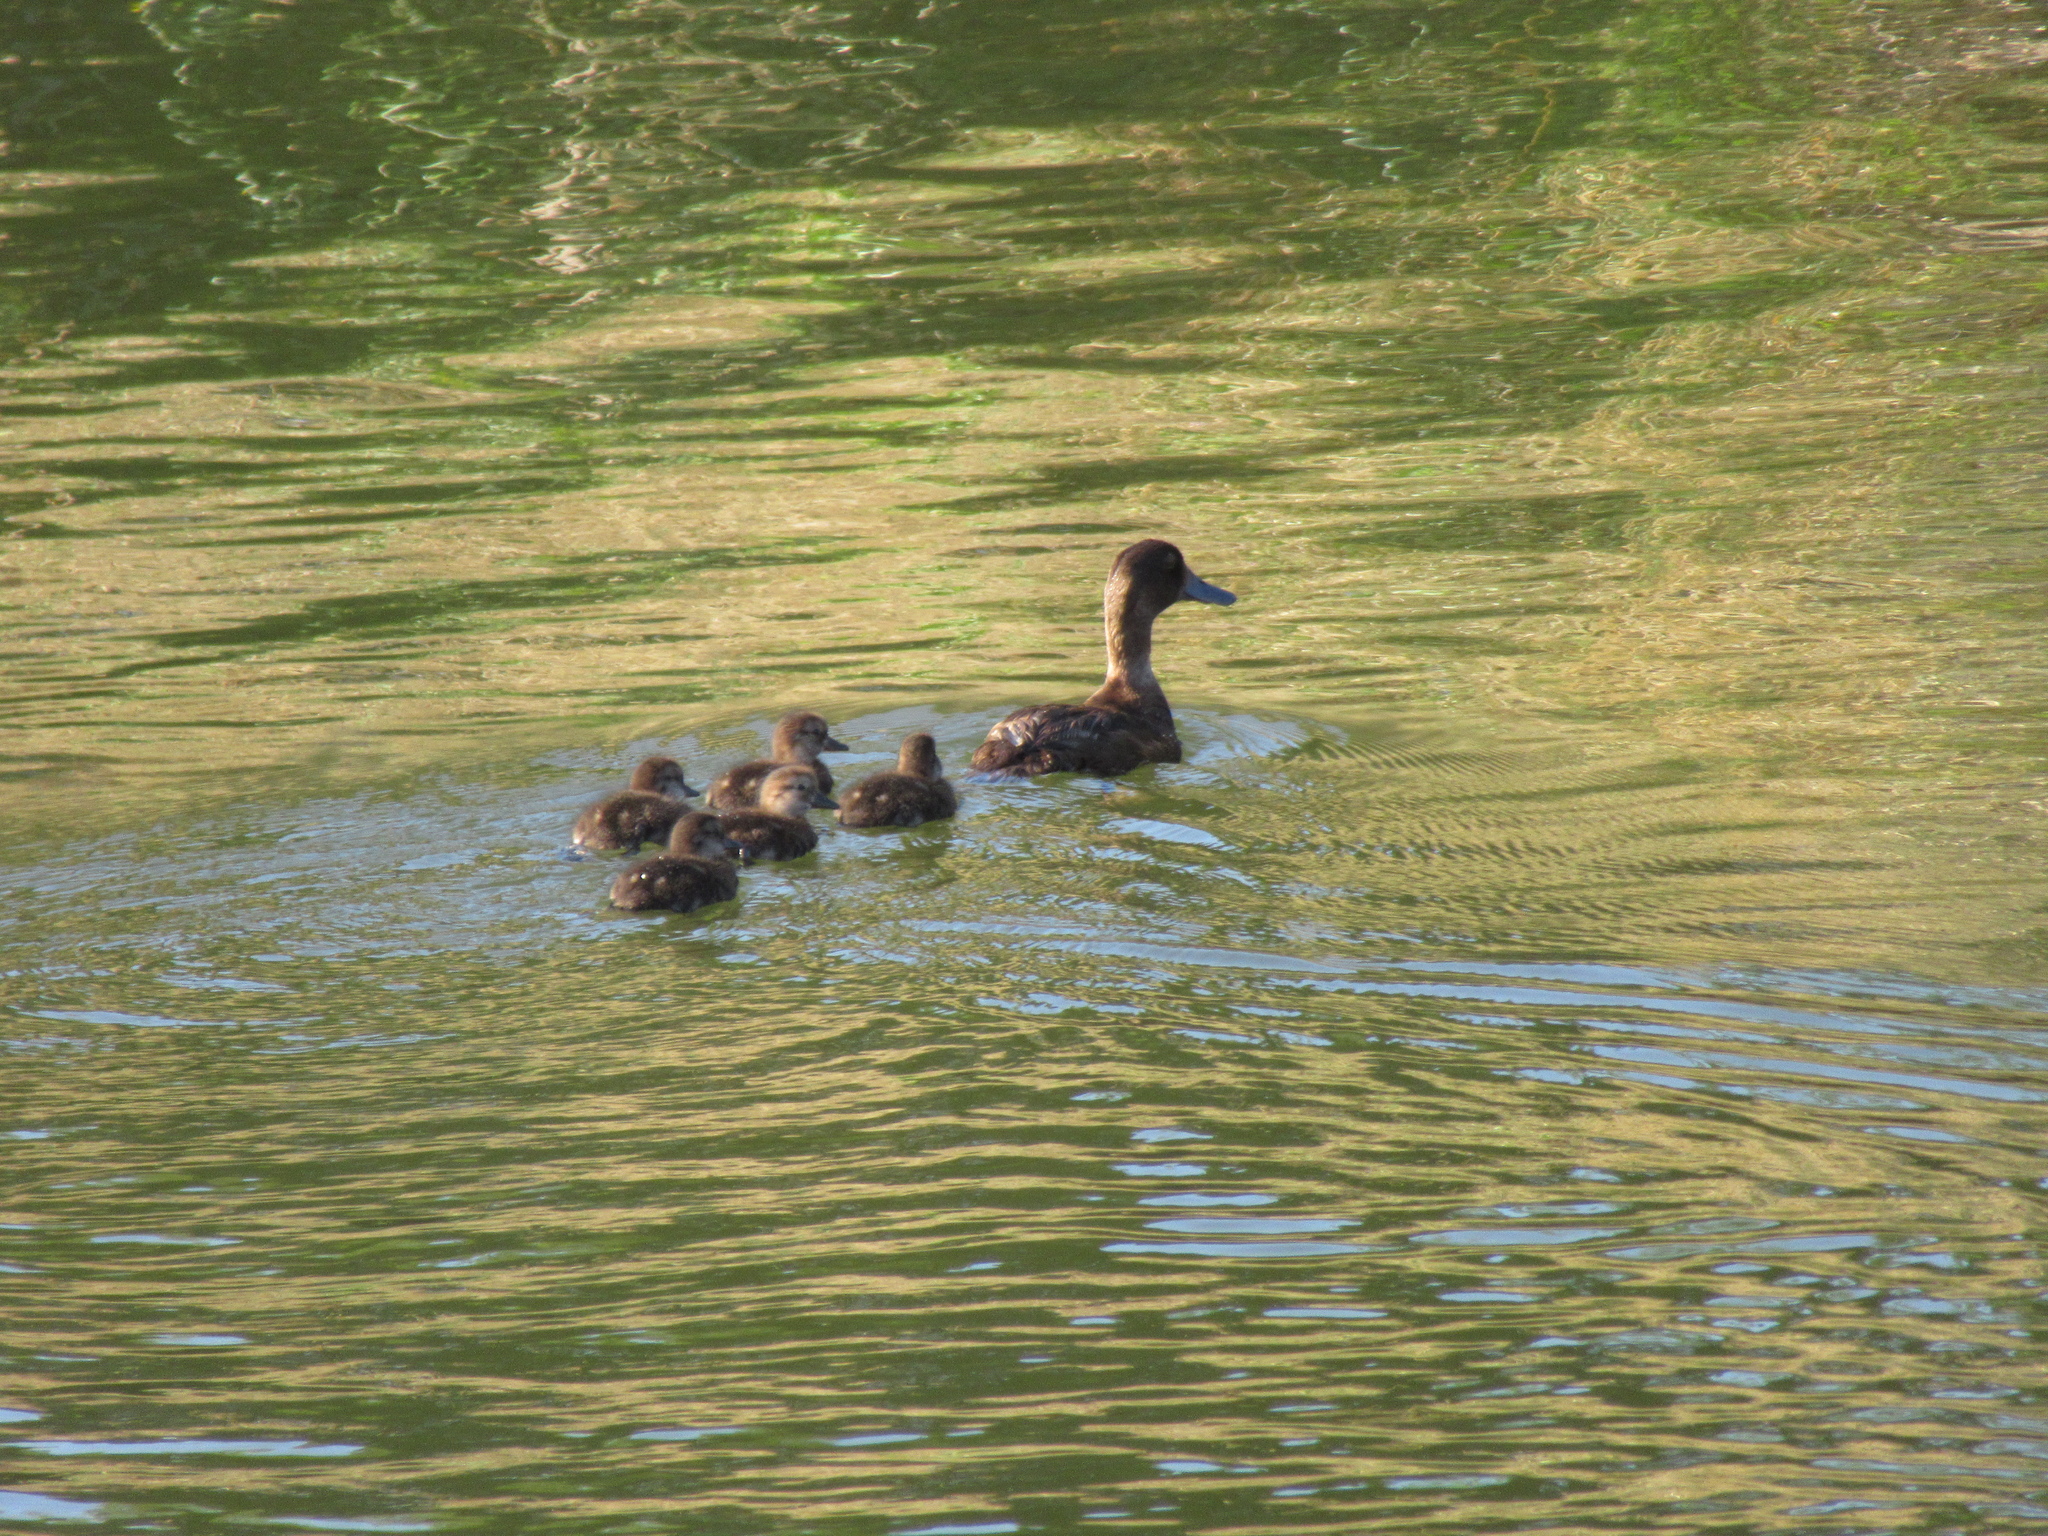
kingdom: Animalia
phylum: Chordata
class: Aves
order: Anseriformes
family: Anatidae
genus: Aythya
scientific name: Aythya novaeseelandiae
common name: New zealand scaup
